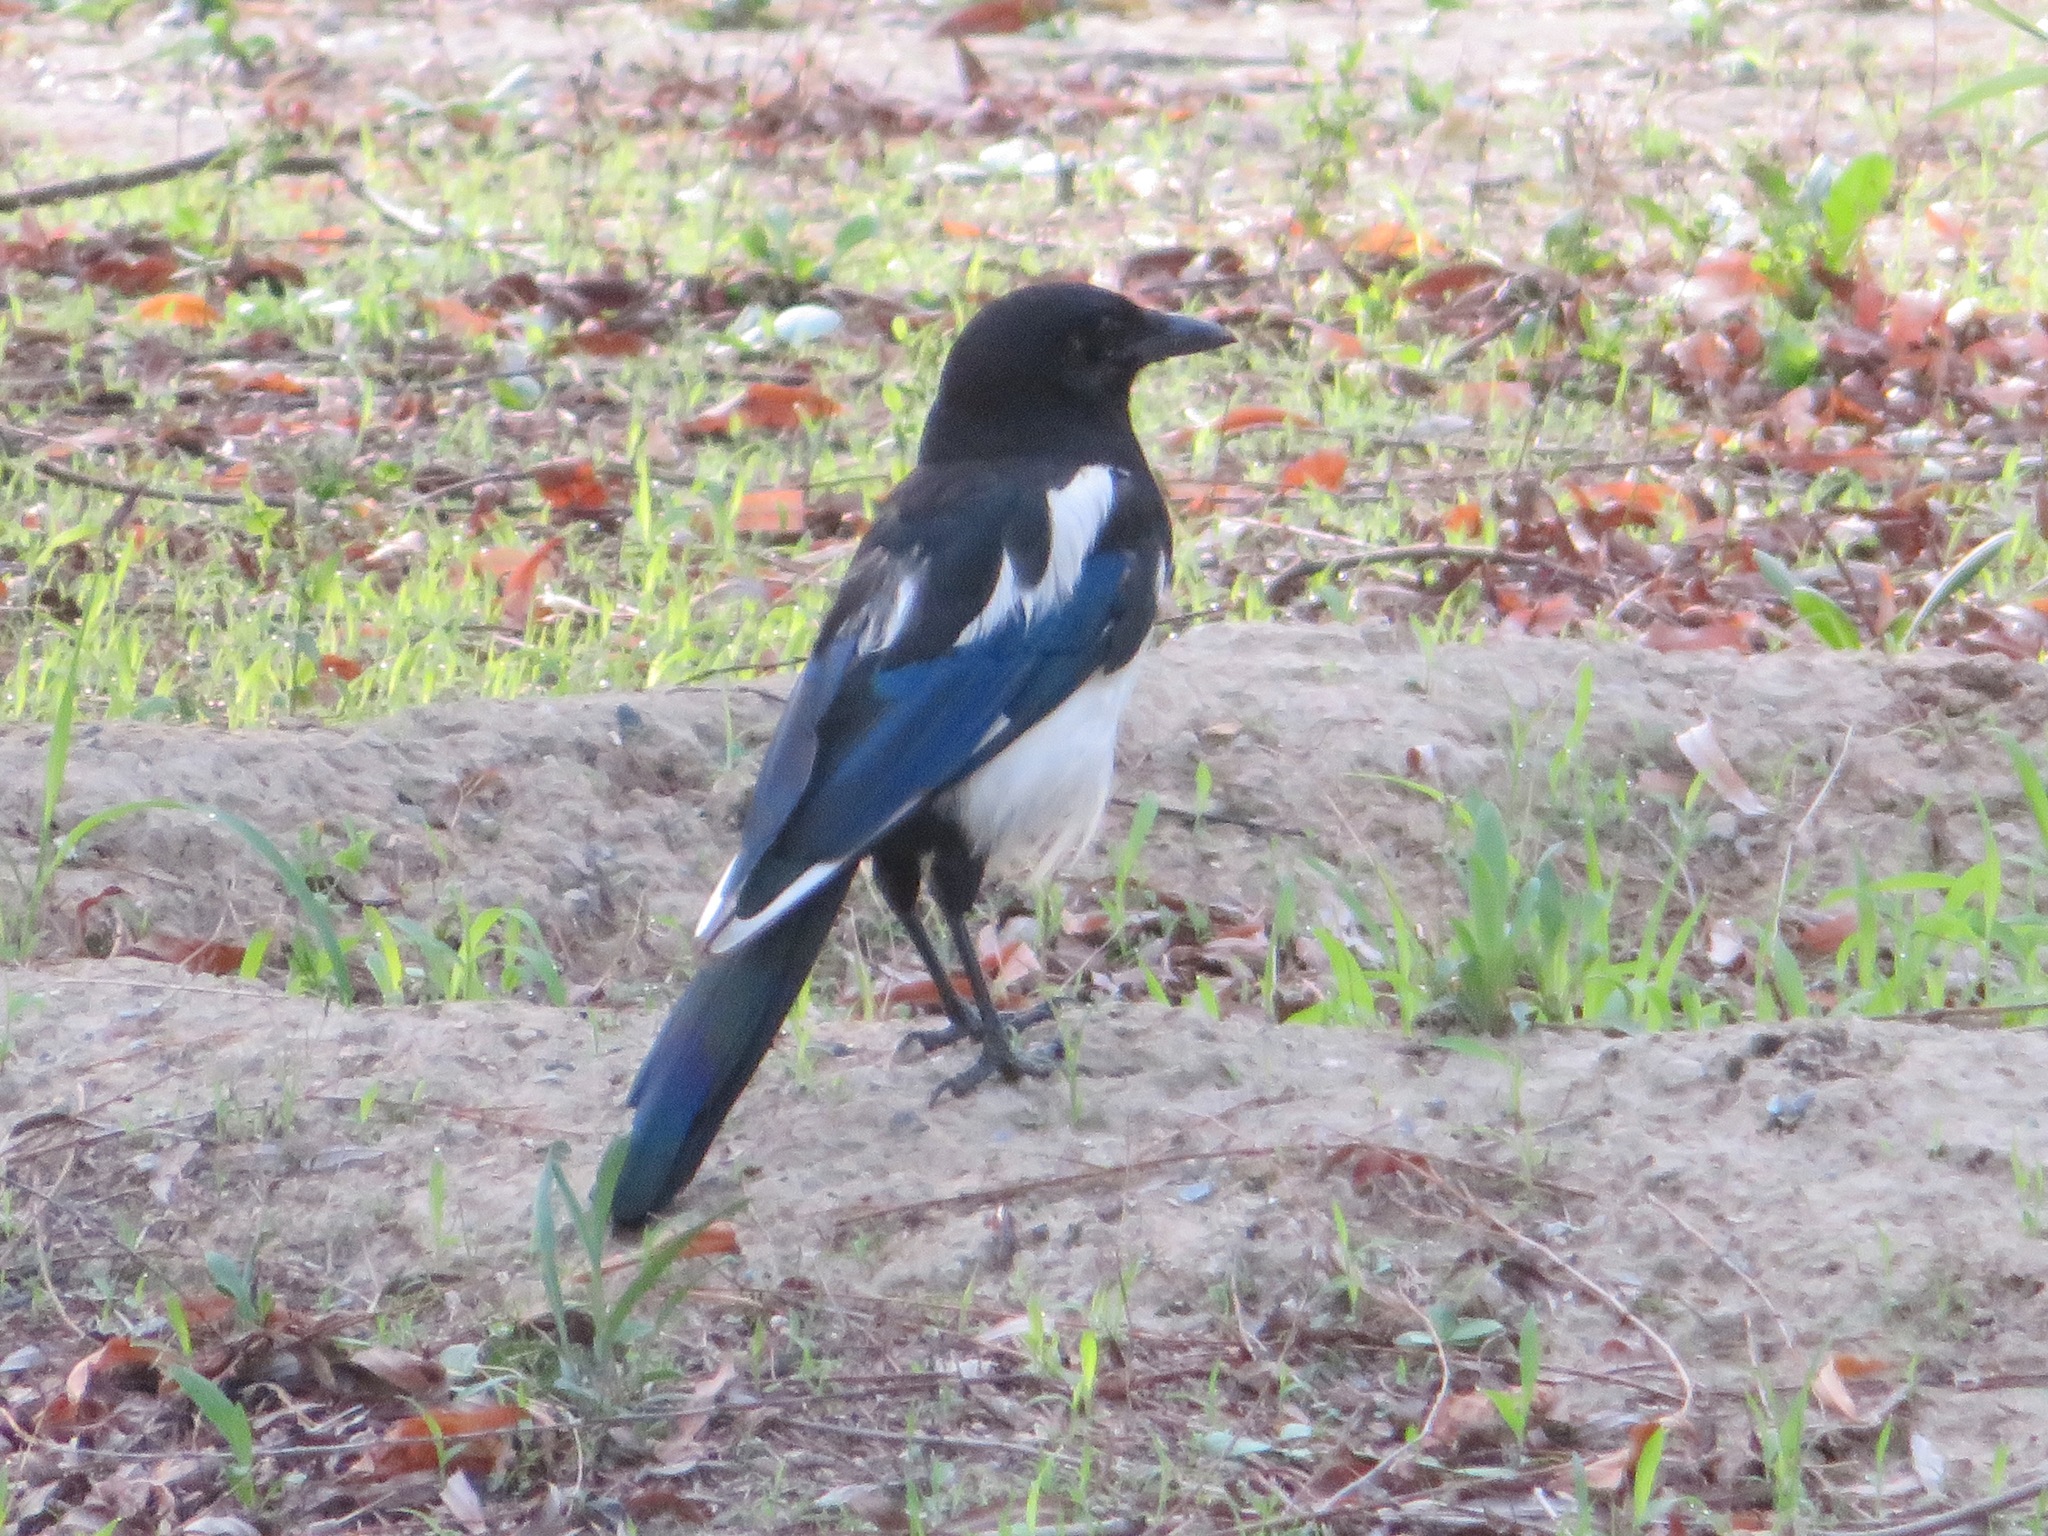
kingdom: Animalia
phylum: Chordata
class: Aves
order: Passeriformes
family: Corvidae
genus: Pica
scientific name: Pica serica
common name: Oriental magpie
